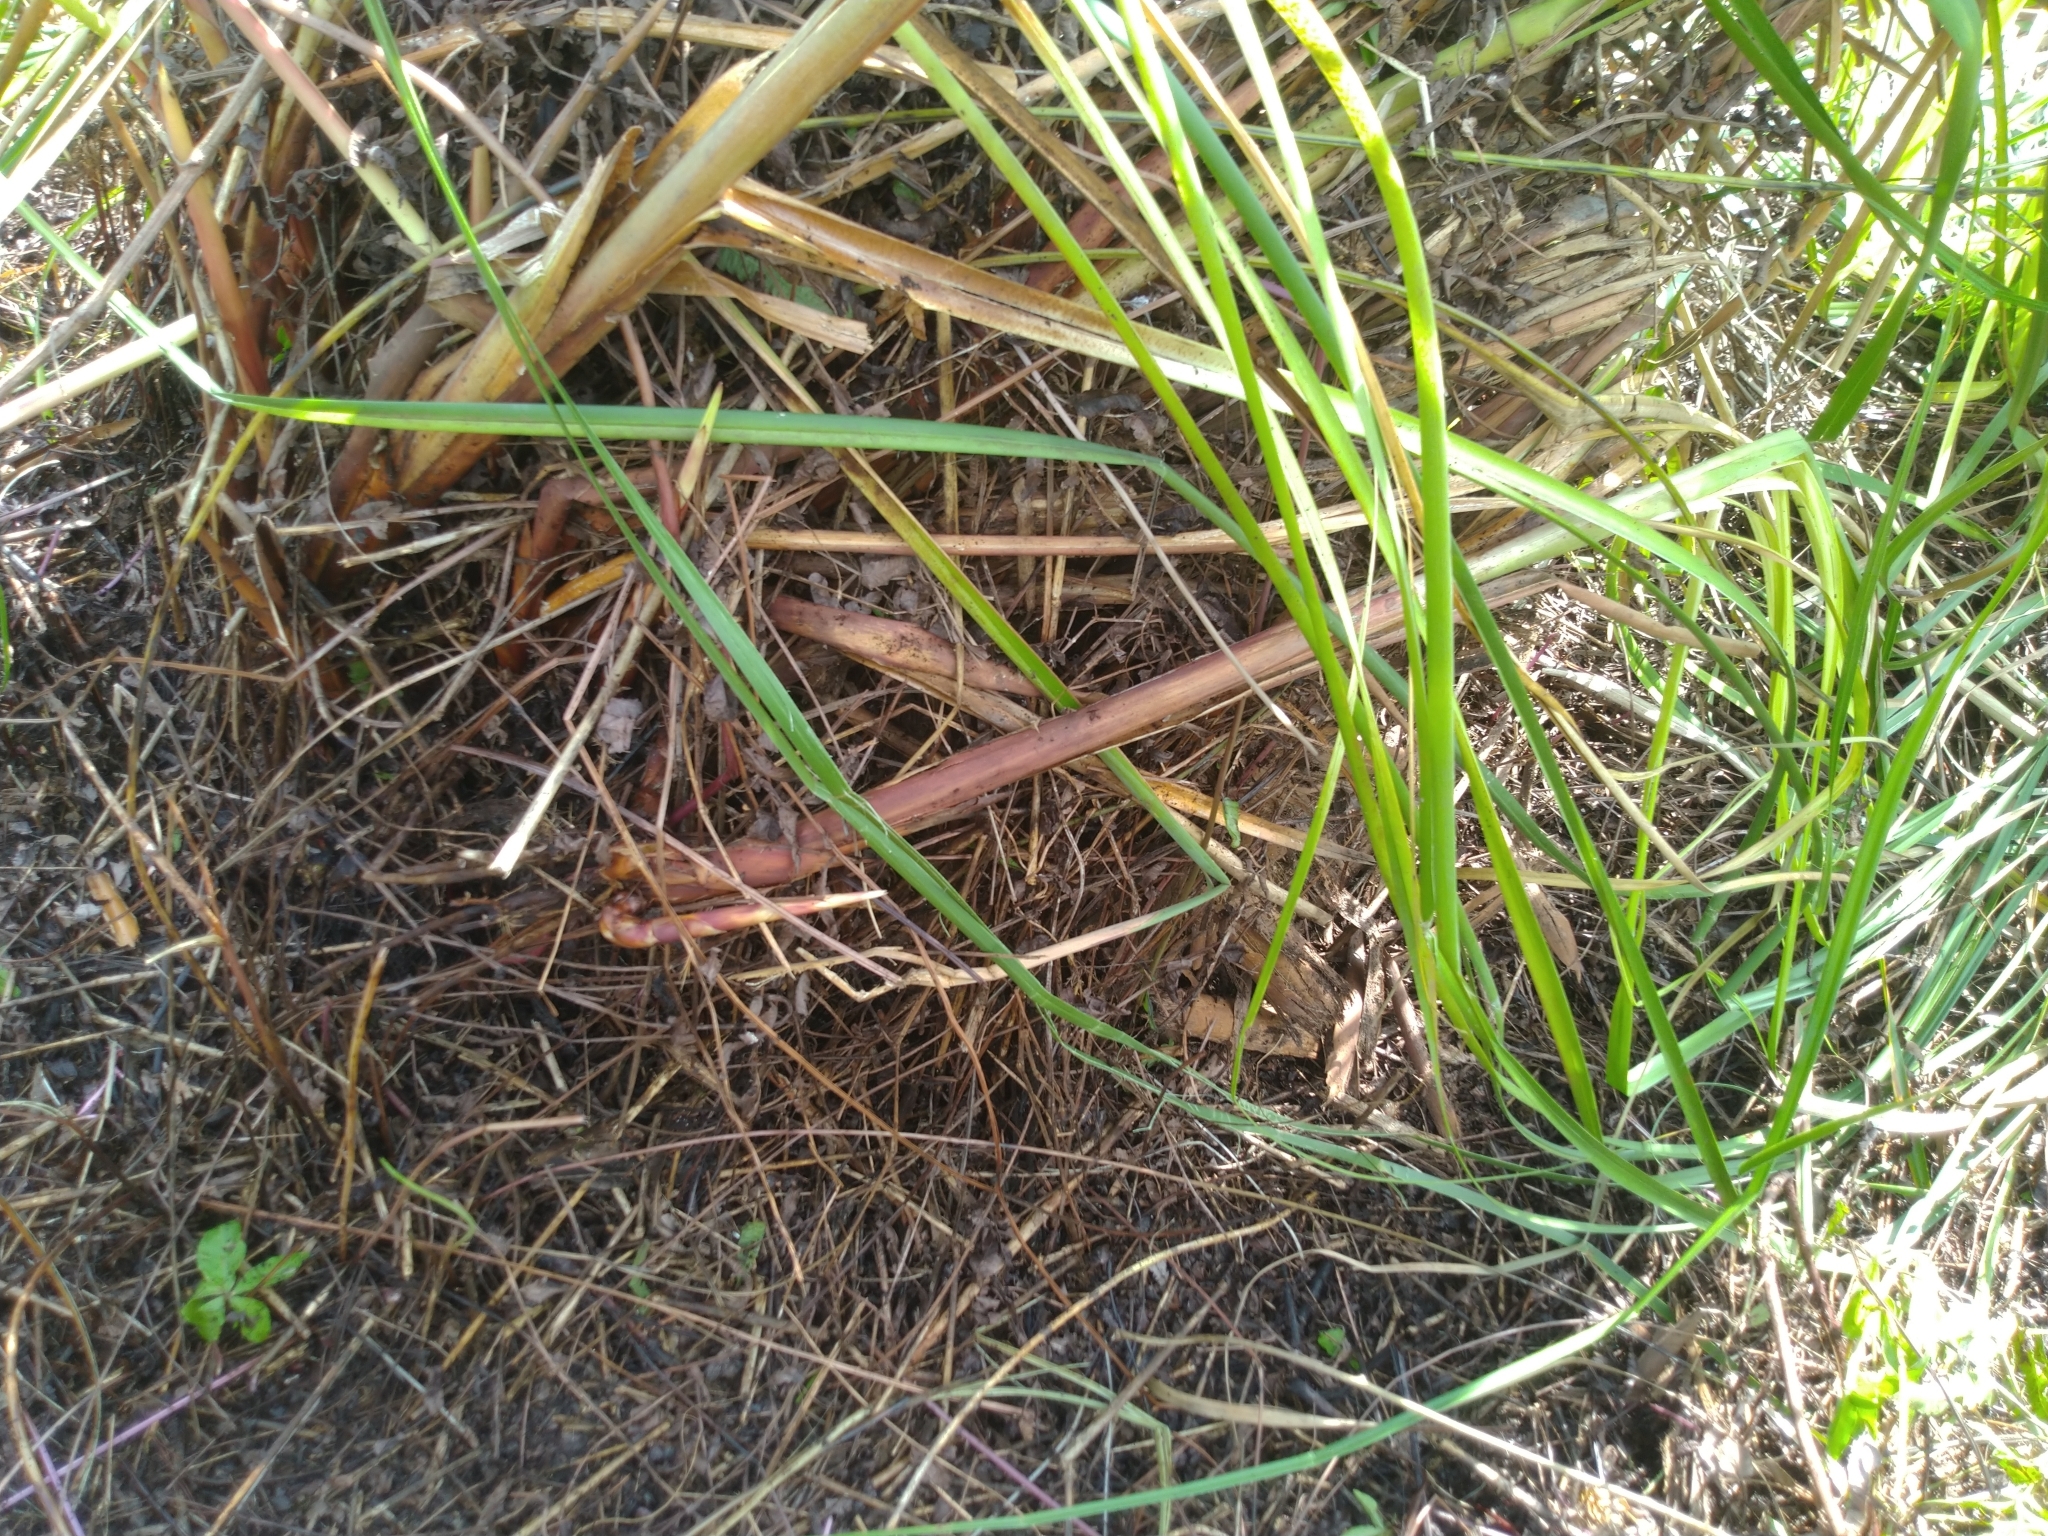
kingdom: Plantae
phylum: Tracheophyta
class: Liliopsida
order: Poales
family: Cyperaceae
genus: Cladium
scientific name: Cladium mariscus
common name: Great fen-sedge
